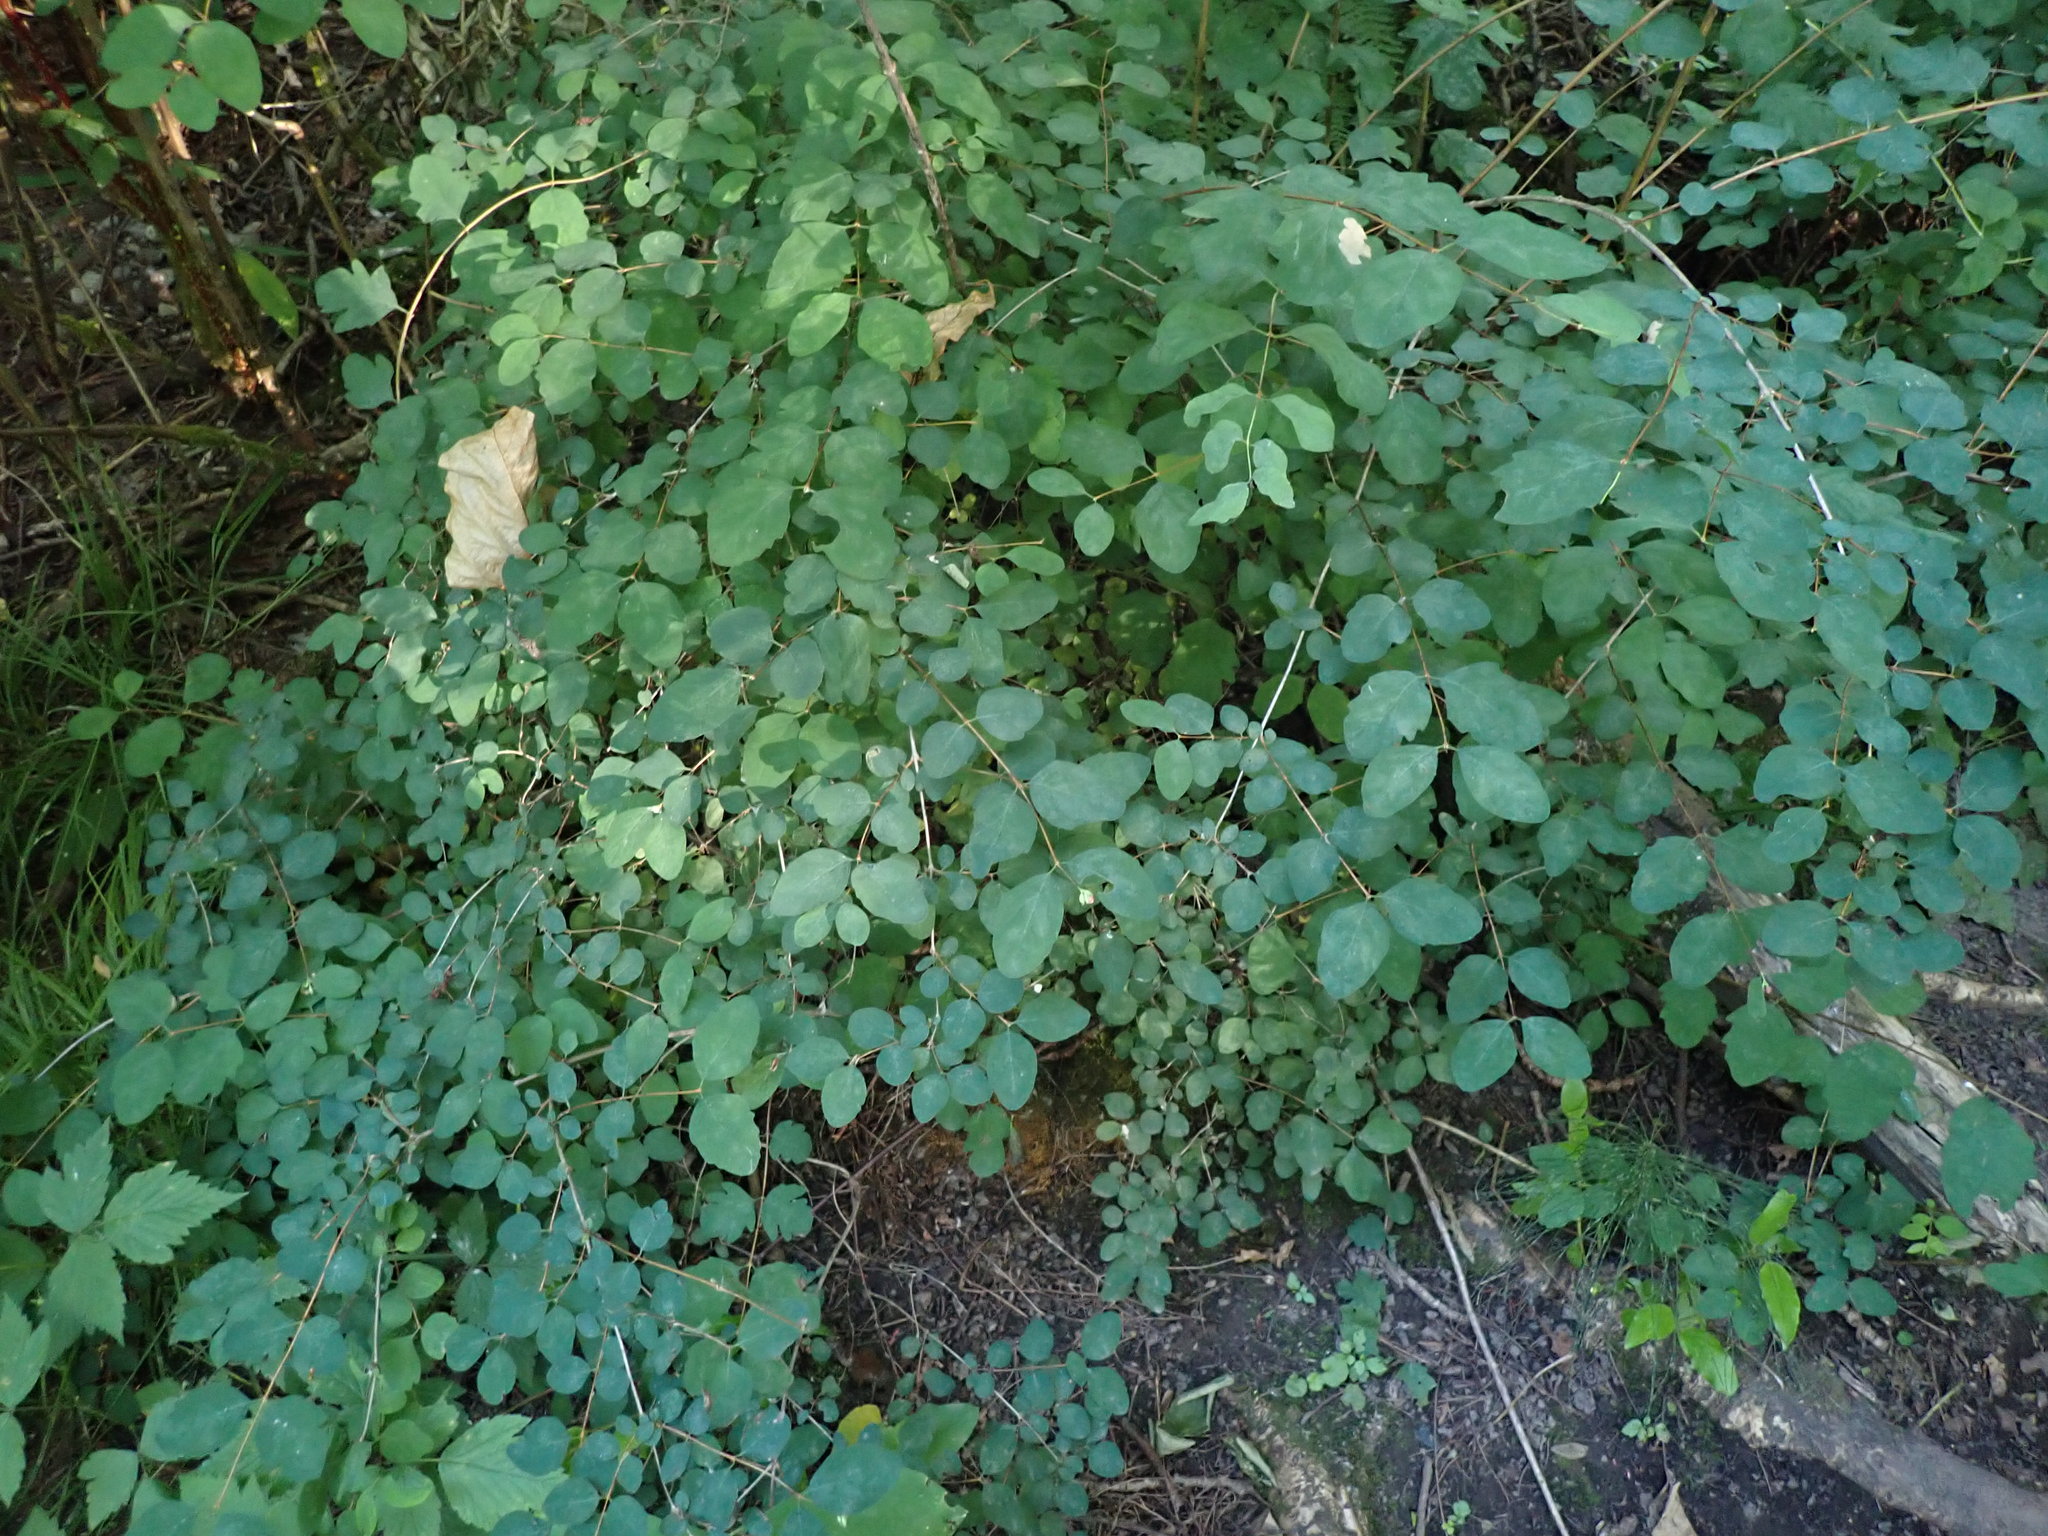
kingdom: Plantae
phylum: Tracheophyta
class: Magnoliopsida
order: Dipsacales
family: Caprifoliaceae
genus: Symphoricarpos
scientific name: Symphoricarpos albus
